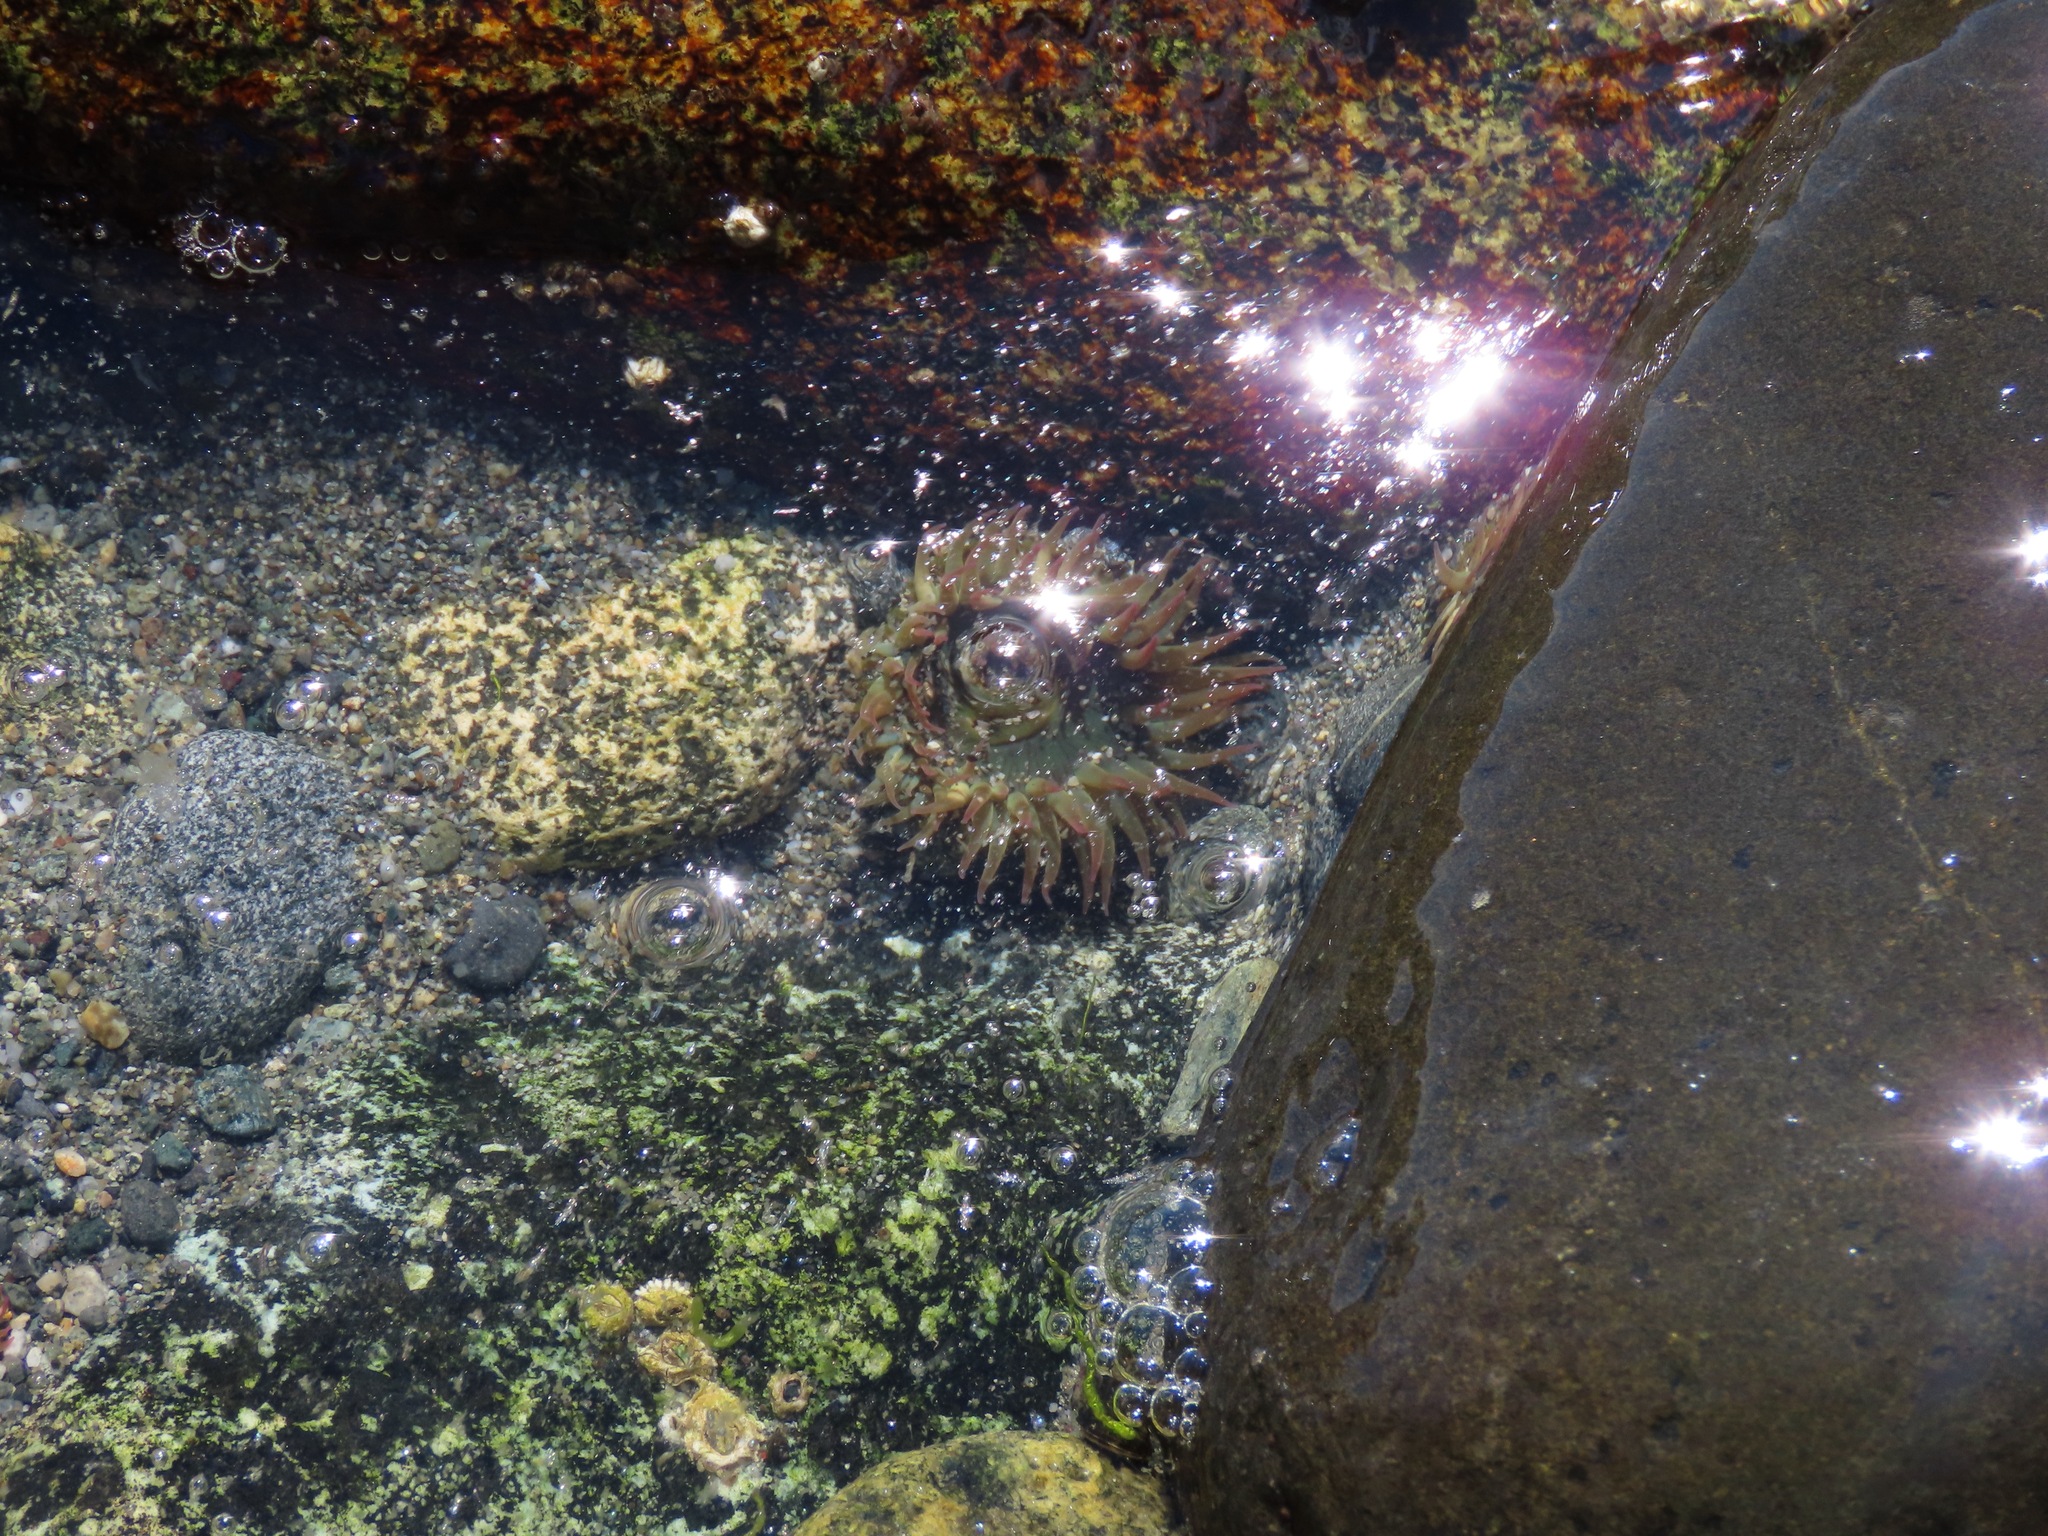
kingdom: Animalia
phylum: Cnidaria
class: Anthozoa
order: Actiniaria
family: Actiniidae
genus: Anthopleura
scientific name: Anthopleura elegantissima
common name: Clonal anemone
